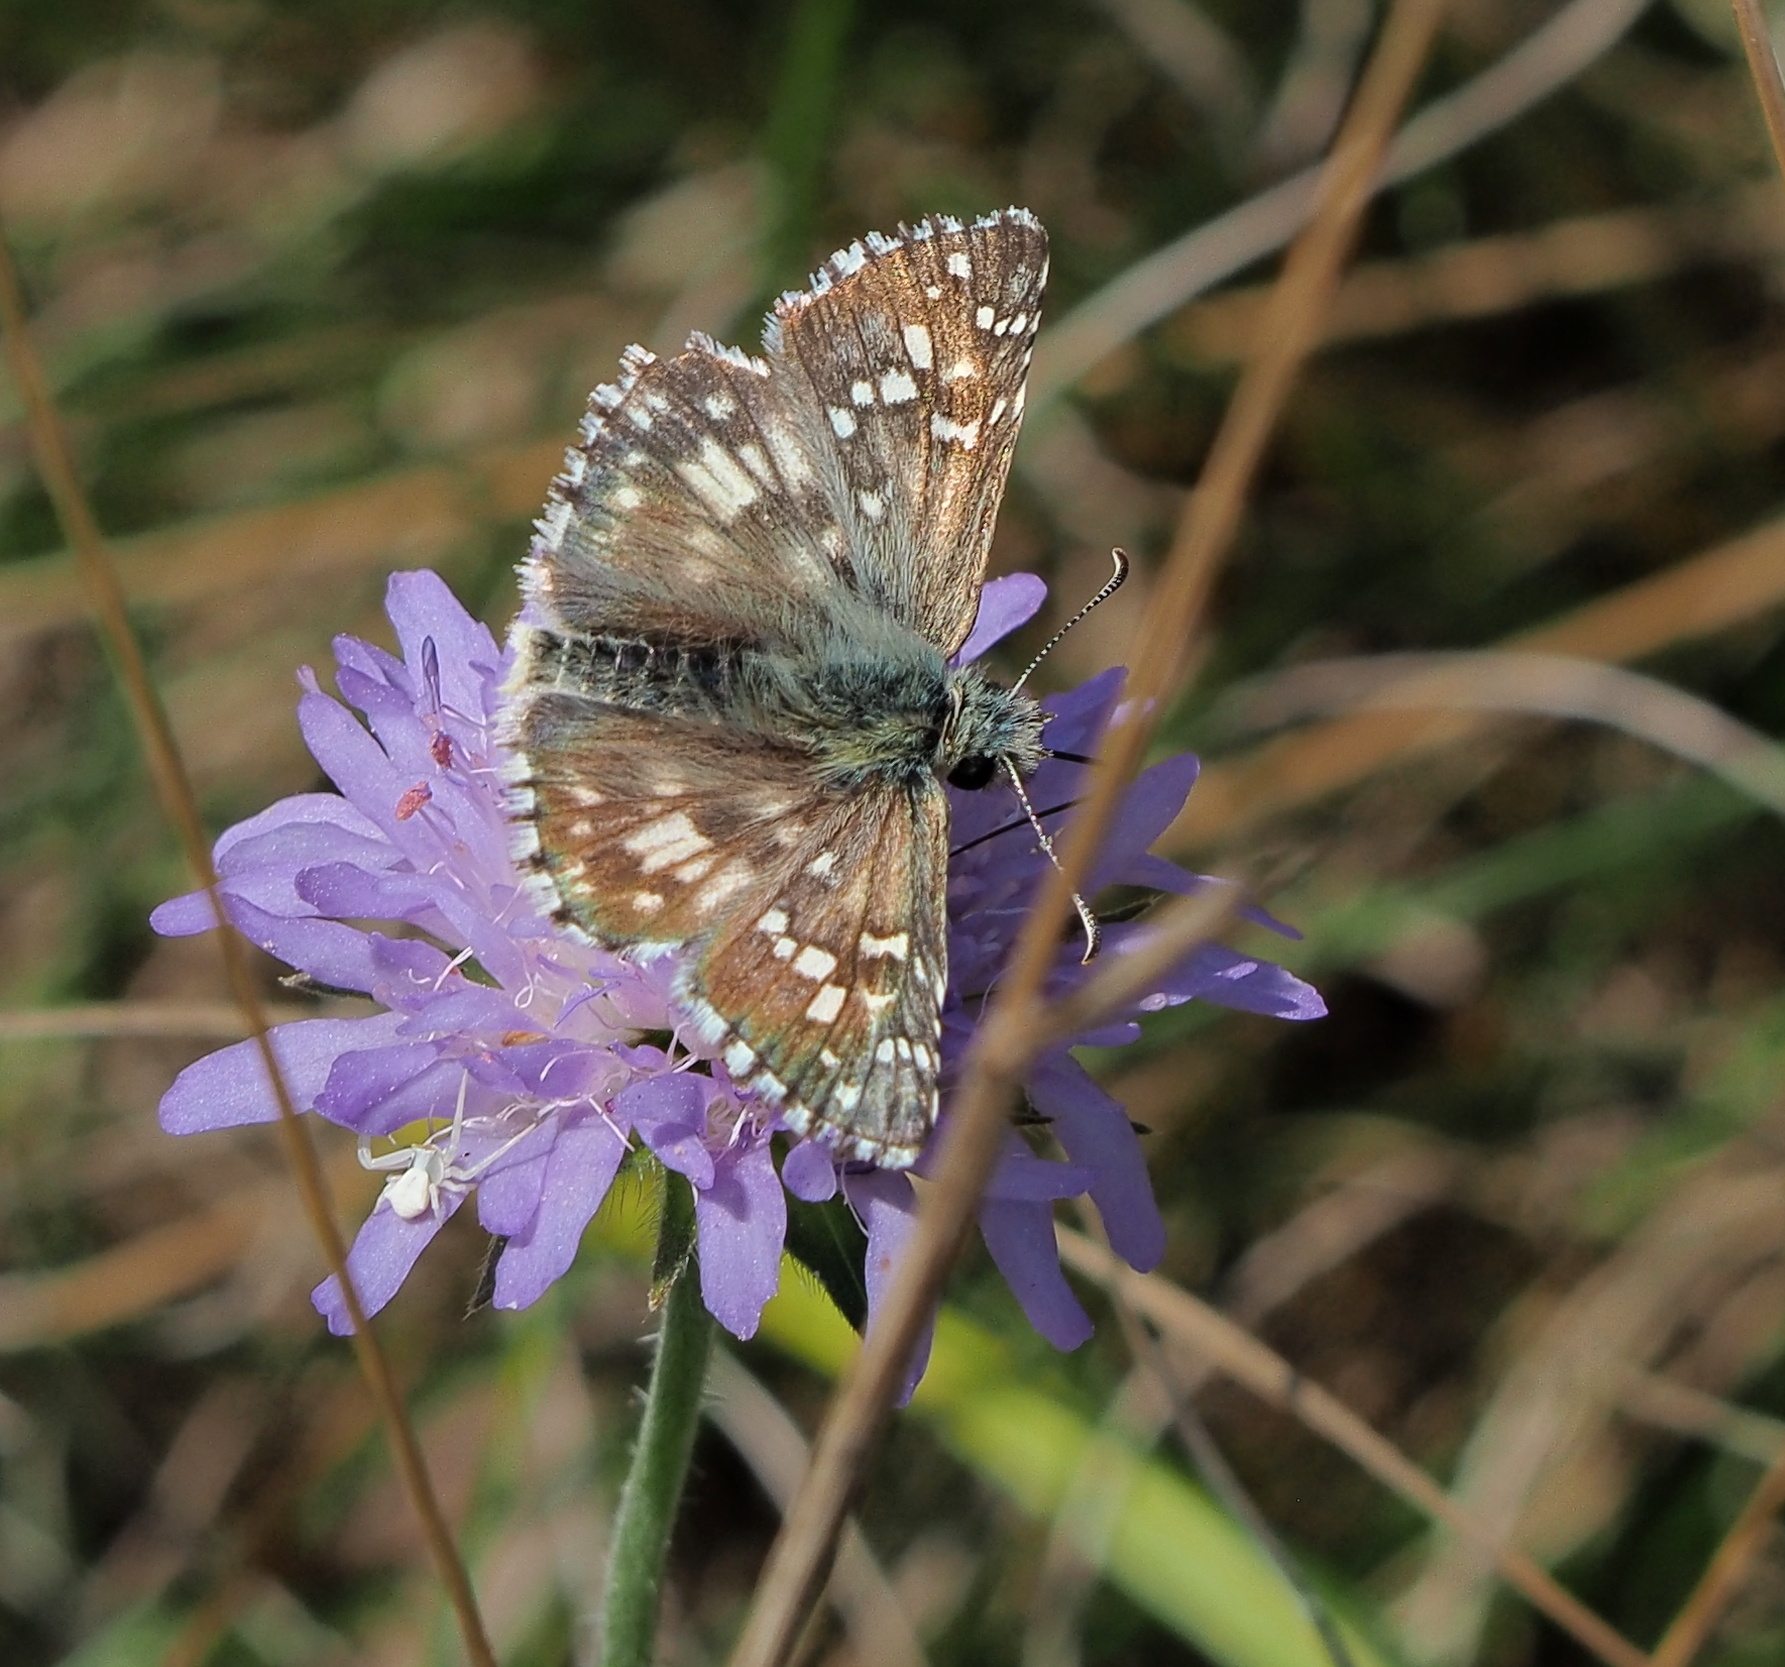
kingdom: Animalia
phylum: Arthropoda
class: Insecta
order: Lepidoptera
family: Hesperiidae
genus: Pyrgus
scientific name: Pyrgus armoricanus
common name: Oberthür's grizzled skipper
